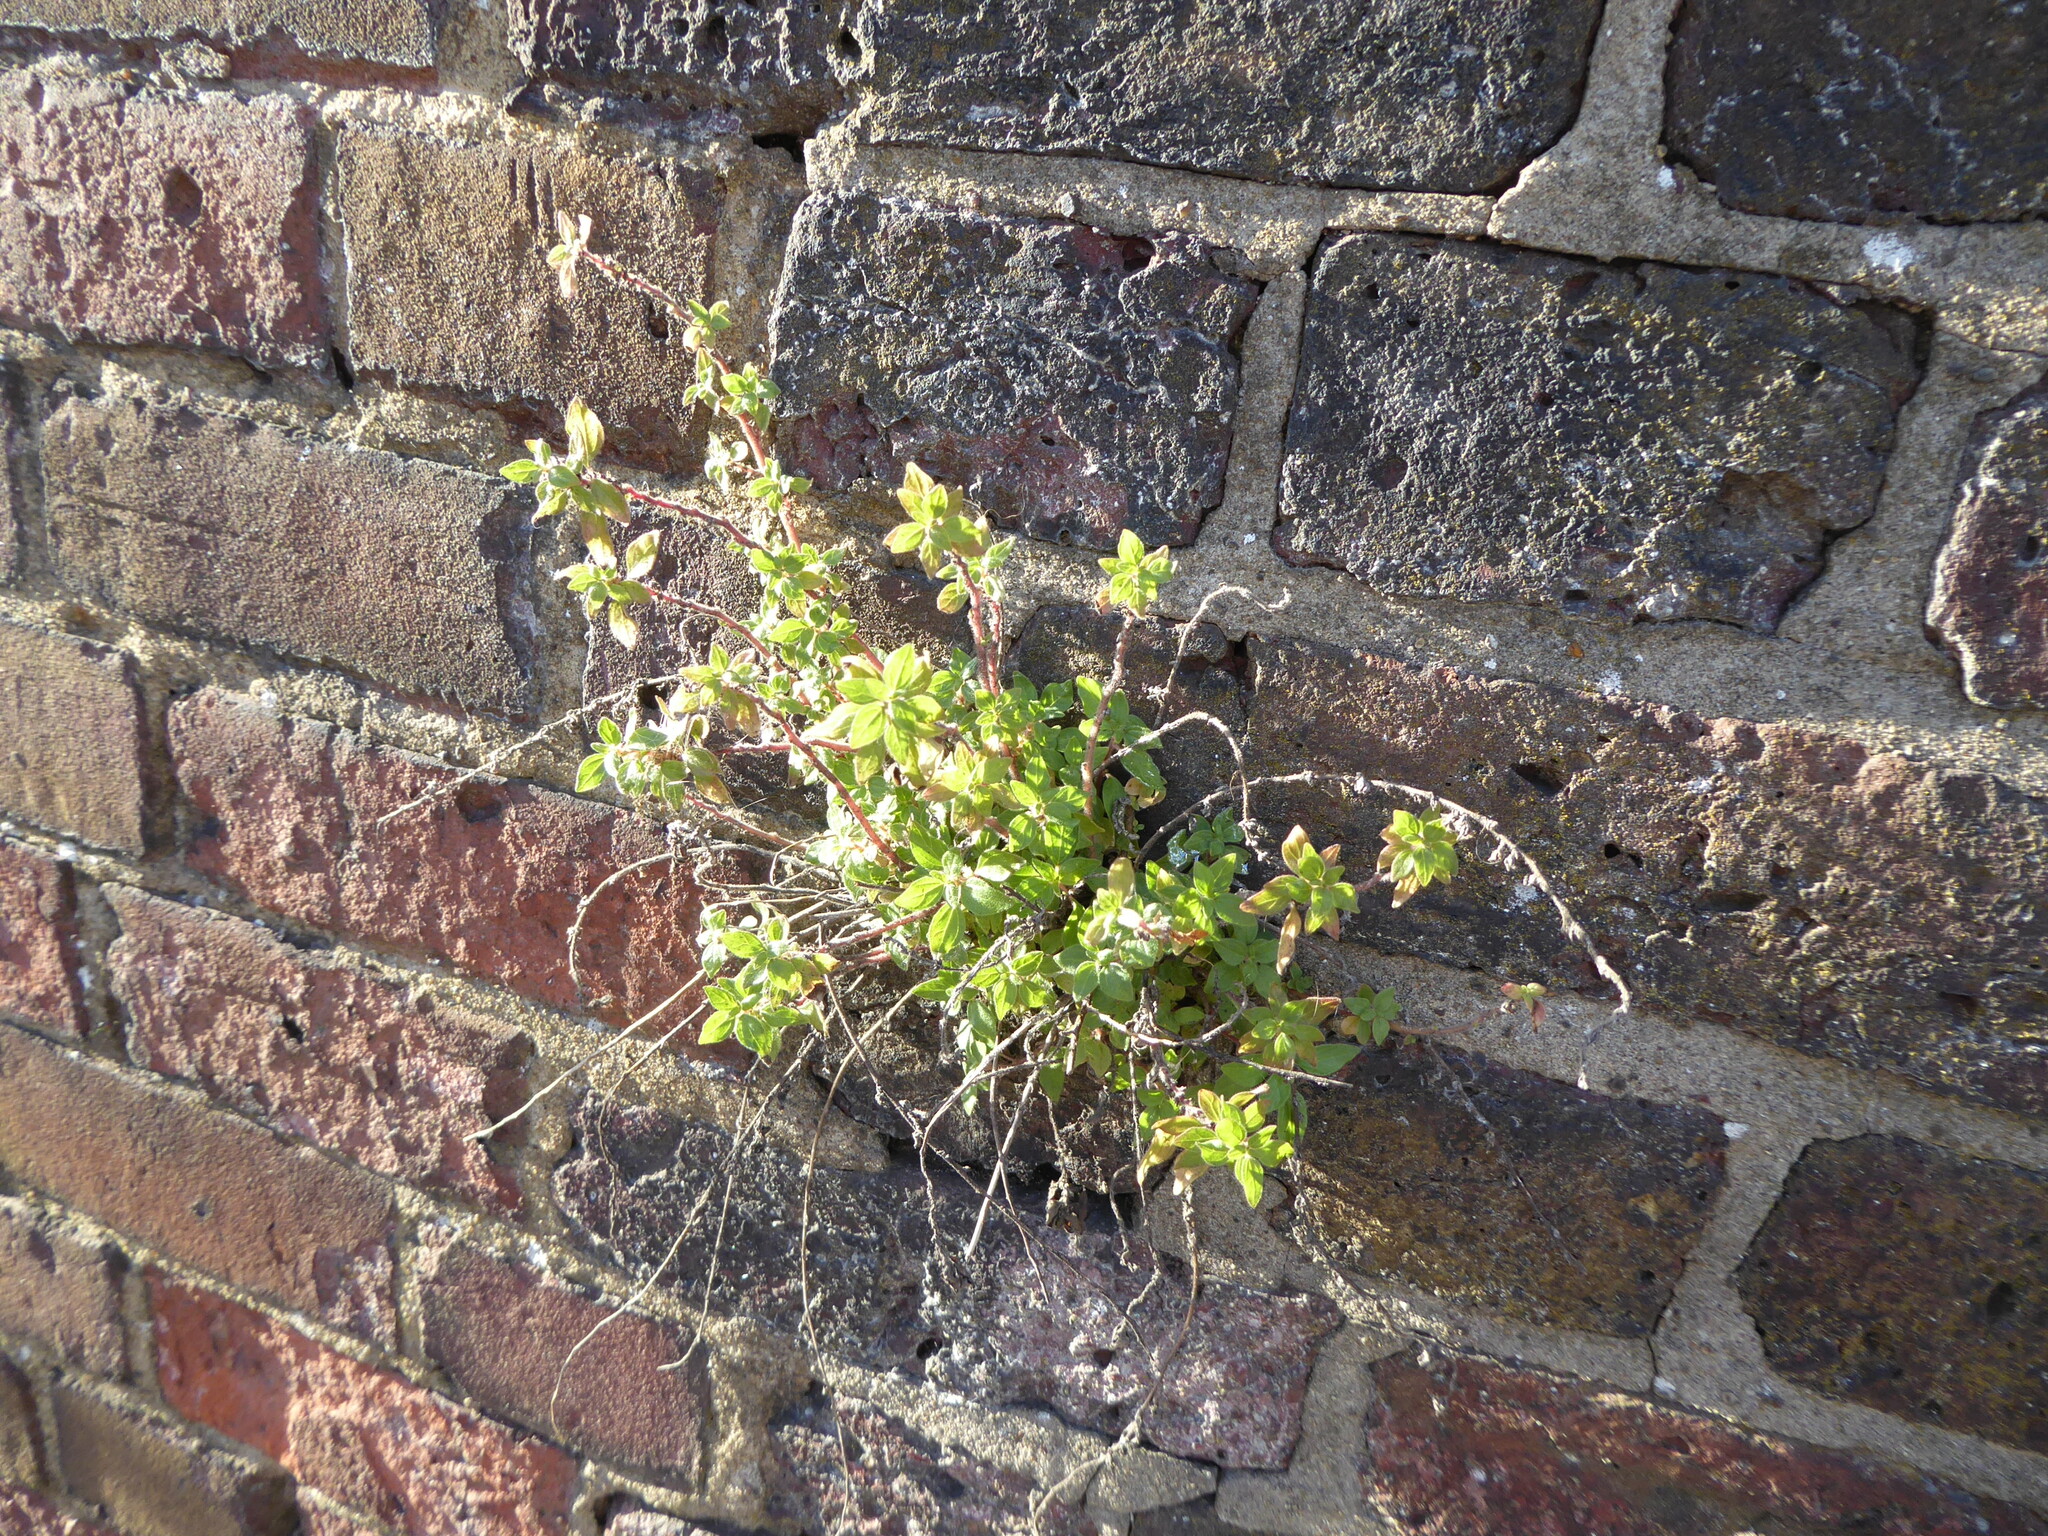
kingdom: Plantae
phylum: Tracheophyta
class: Magnoliopsida
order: Rosales
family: Urticaceae
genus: Parietaria
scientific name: Parietaria judaica
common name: Pellitory-of-the-wall
